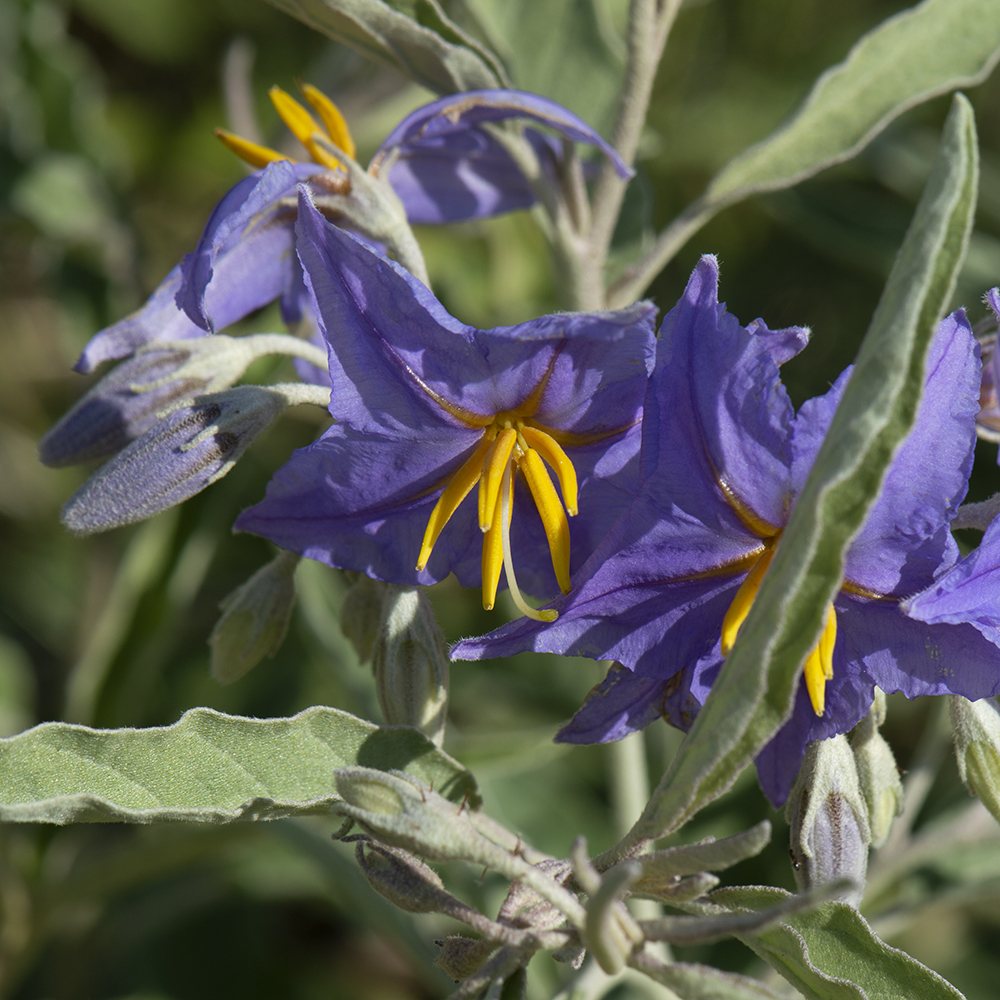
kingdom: Plantae
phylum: Tracheophyta
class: Magnoliopsida
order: Solanales
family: Solanaceae
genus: Solanum
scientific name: Solanum elaeagnifolium
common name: Silverleaf nightshade
